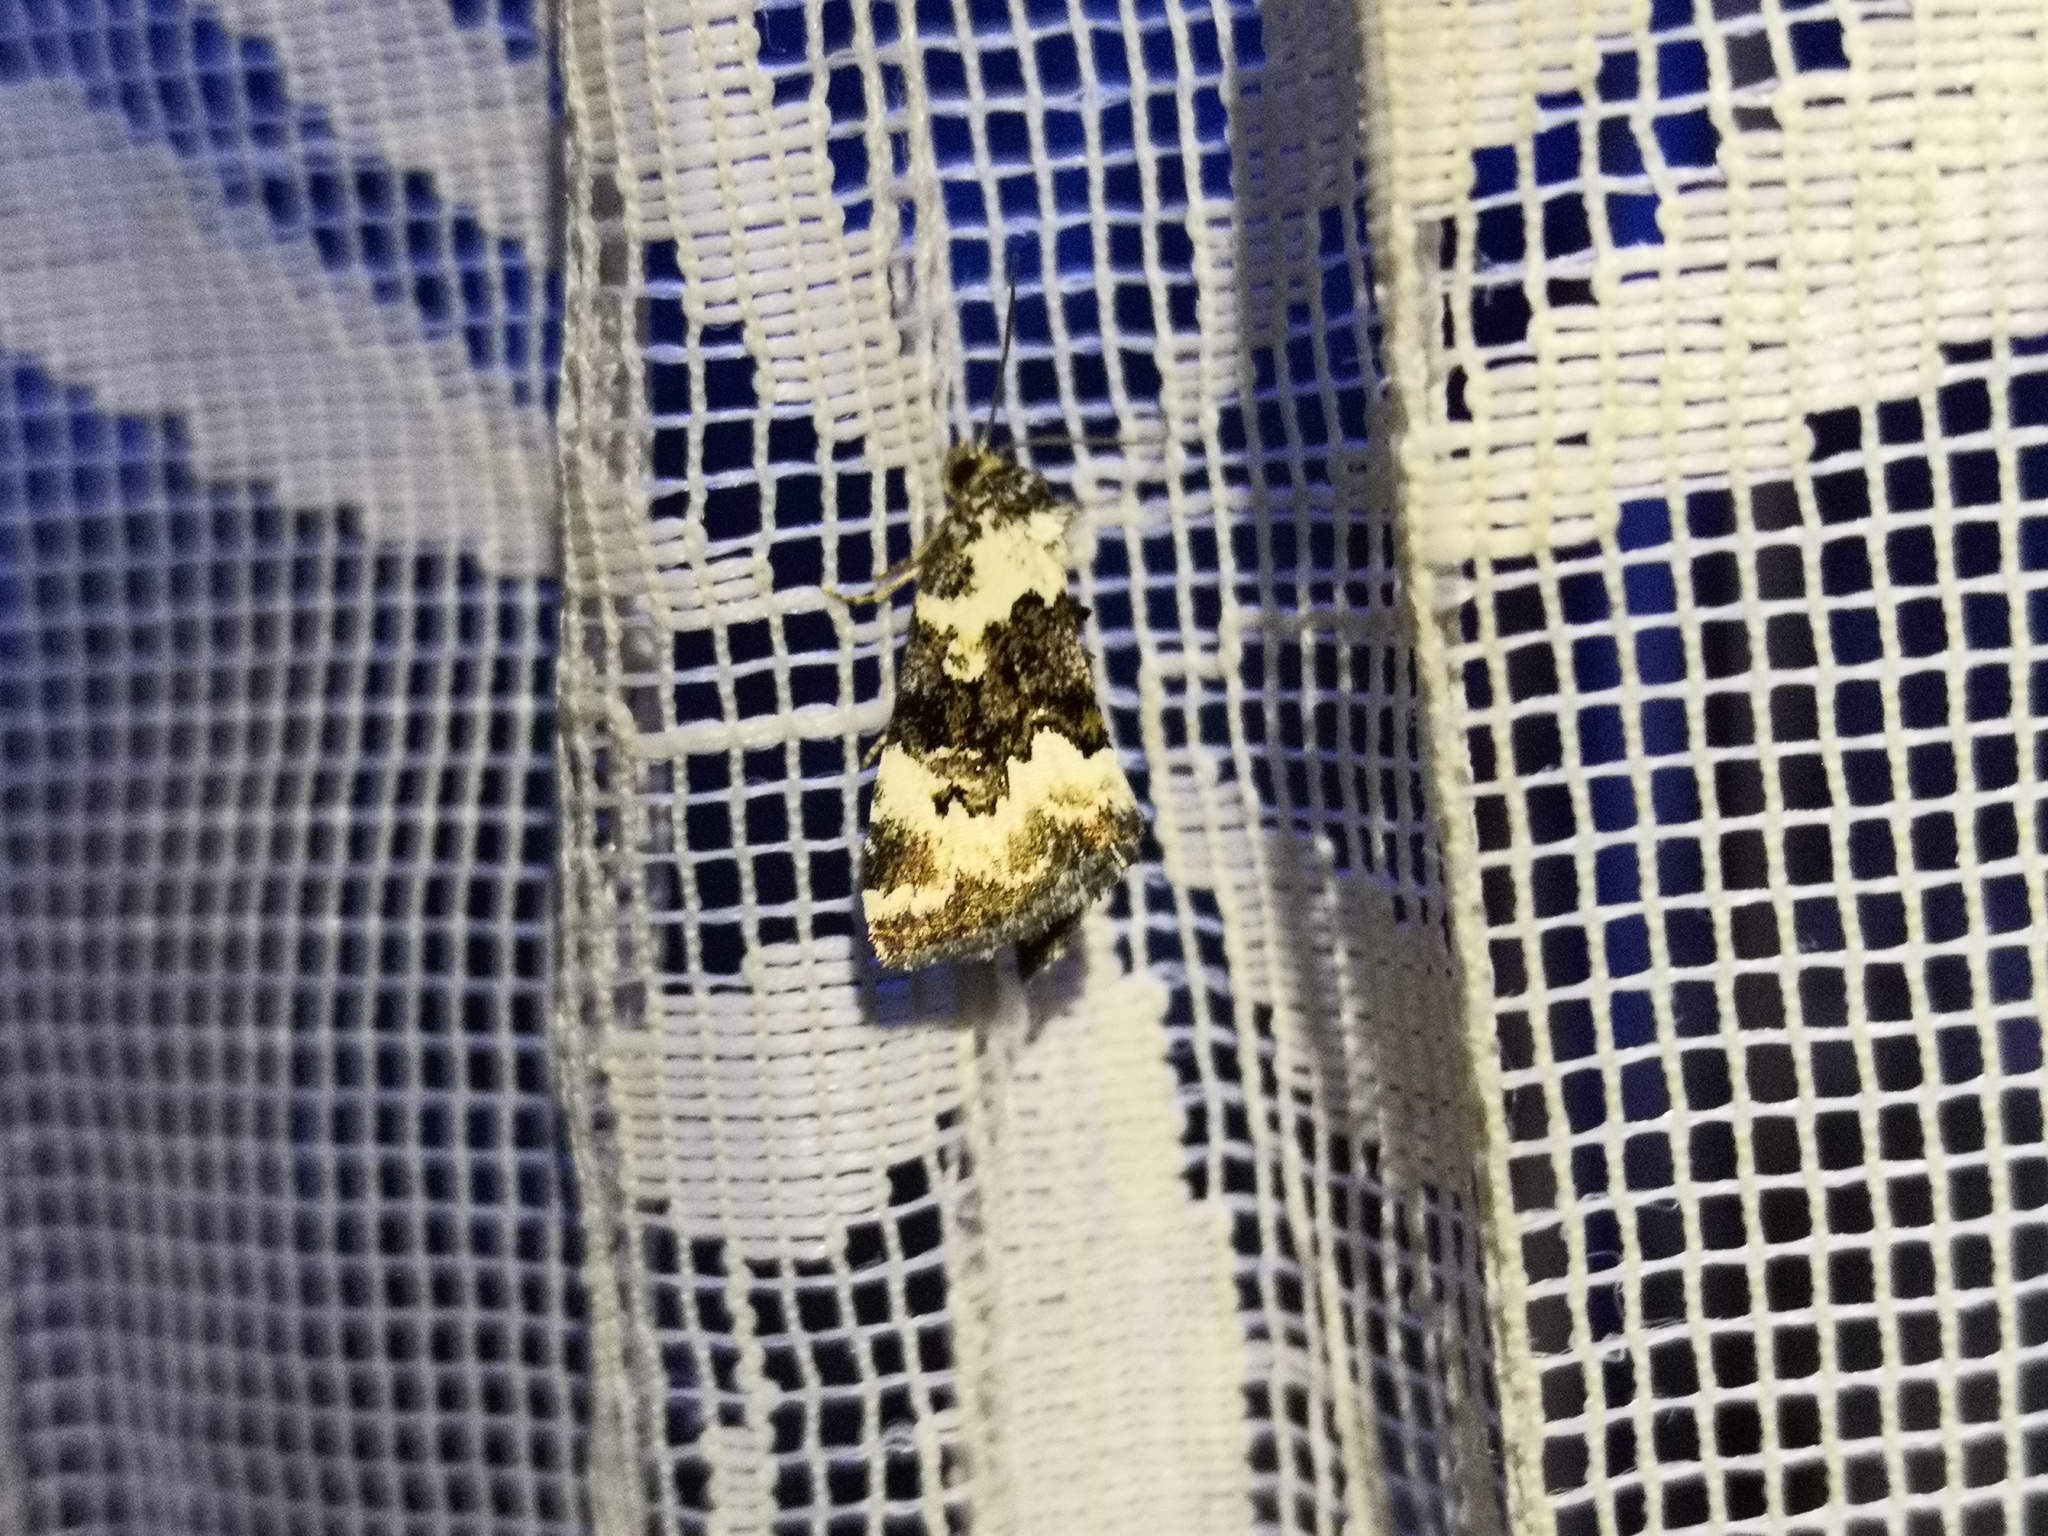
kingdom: Animalia
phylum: Arthropoda
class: Insecta
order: Lepidoptera
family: Noctuidae
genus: Deltote
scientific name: Deltote deceptoria
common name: Pretty marbled
